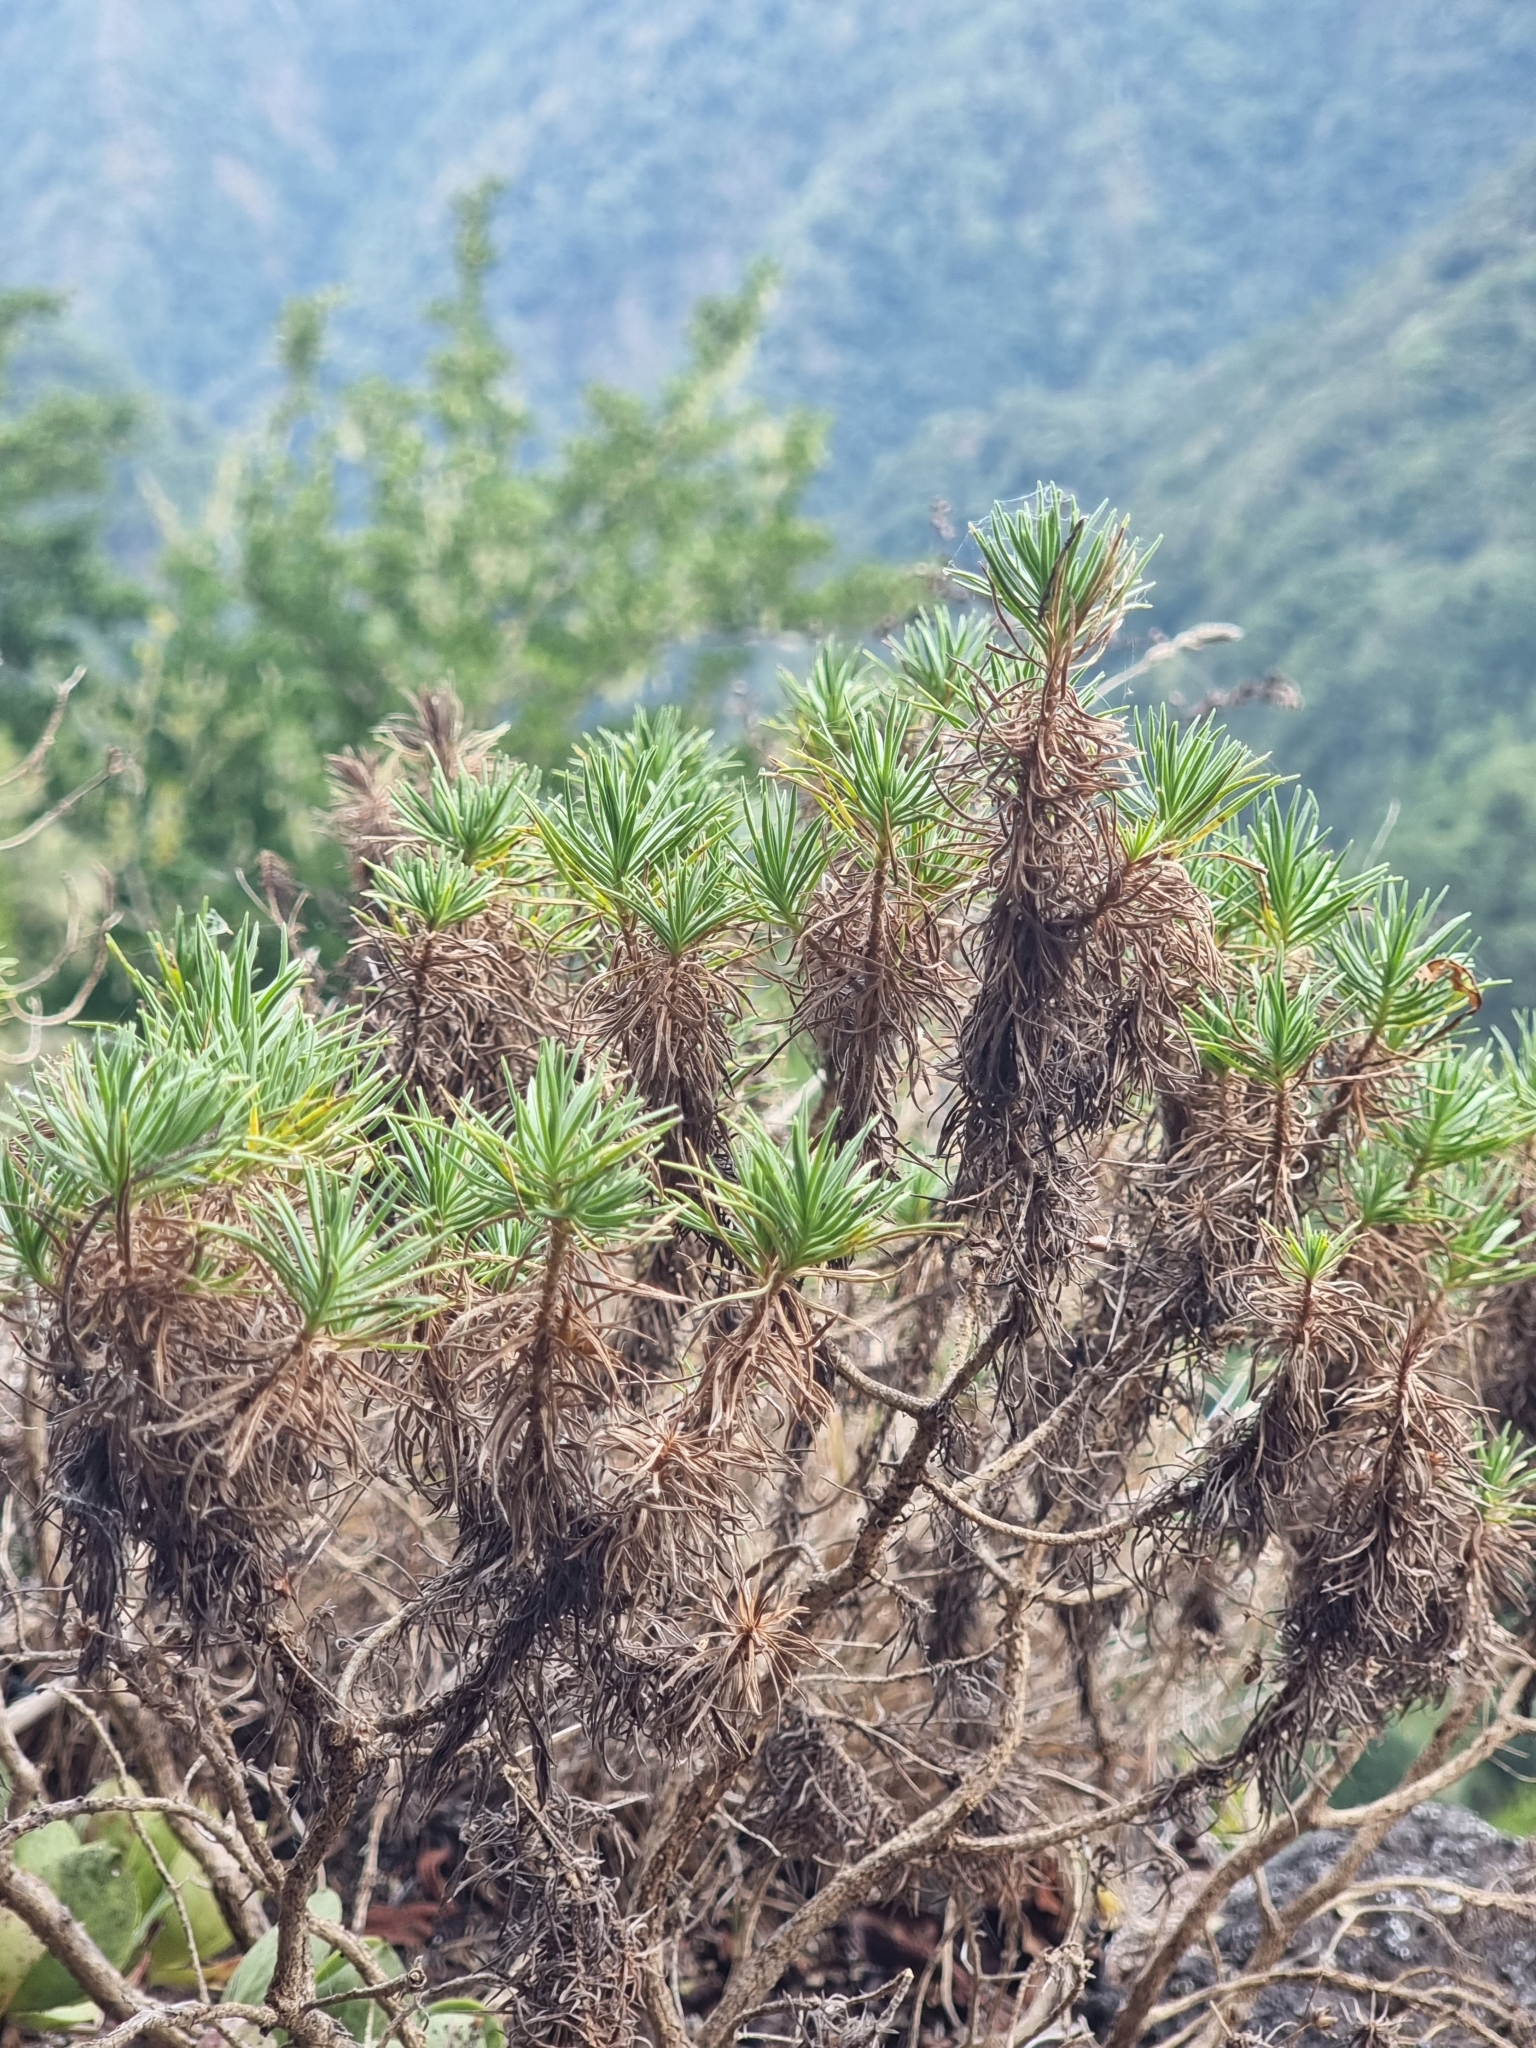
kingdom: Plantae
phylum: Tracheophyta
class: Magnoliopsida
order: Lamiales
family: Plantaginaceae
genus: Plantago
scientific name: Plantago arborescens
